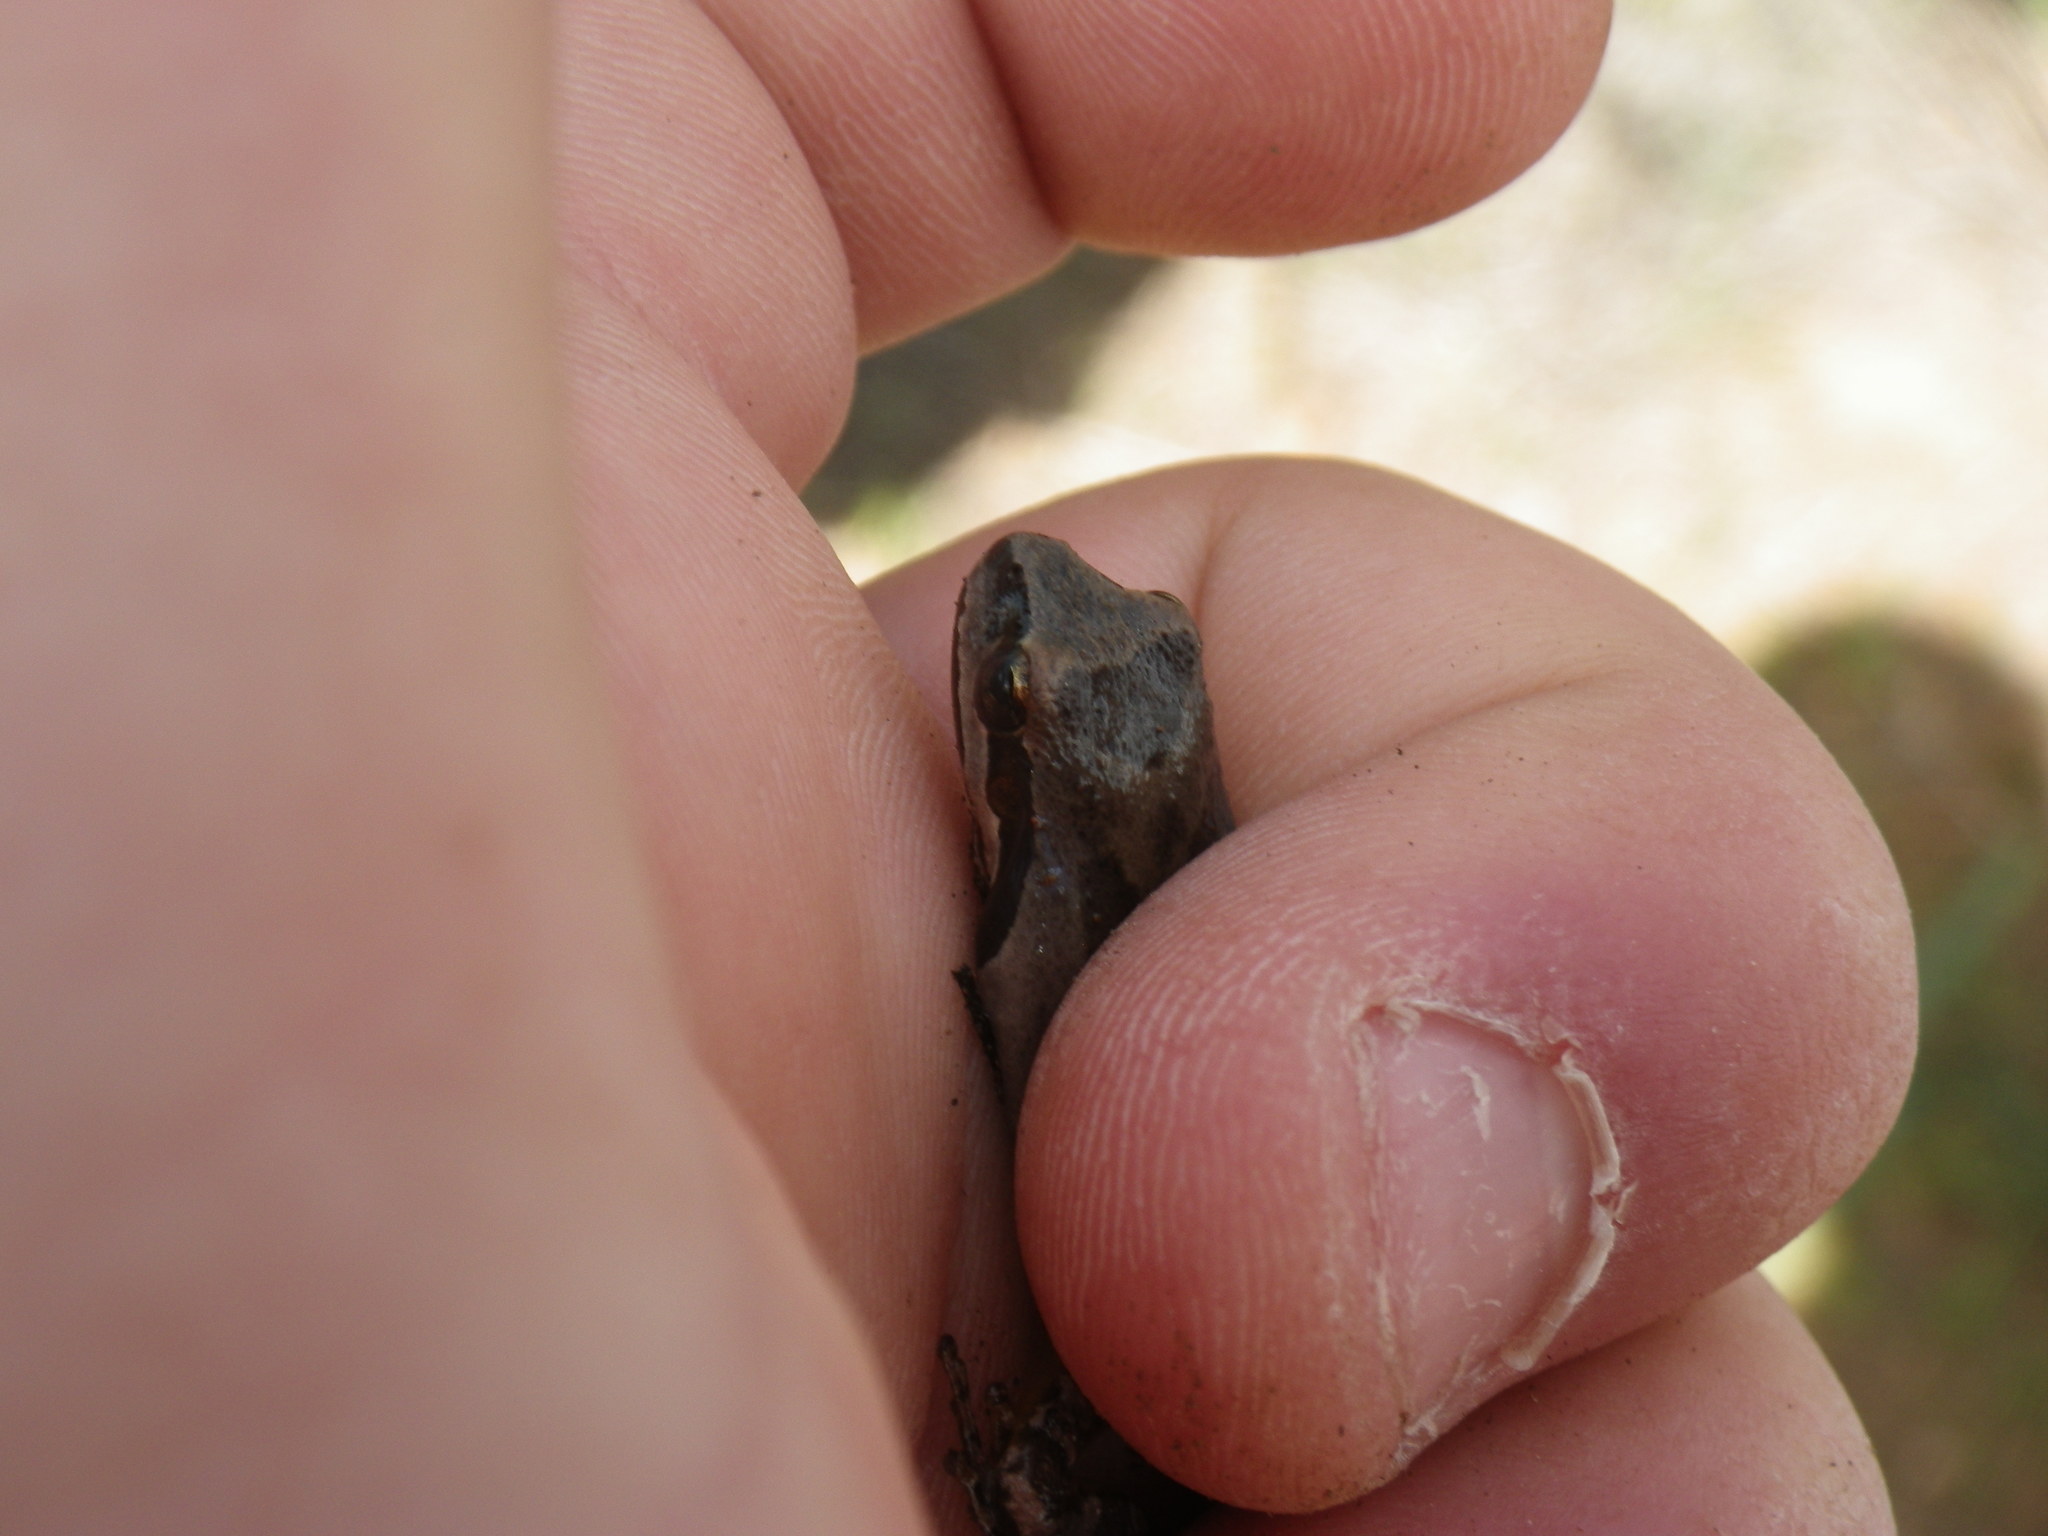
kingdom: Animalia
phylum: Chordata
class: Amphibia
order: Anura
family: Hylidae
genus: Pseudacris
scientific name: Pseudacris regilla
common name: Pacific chorus frog
